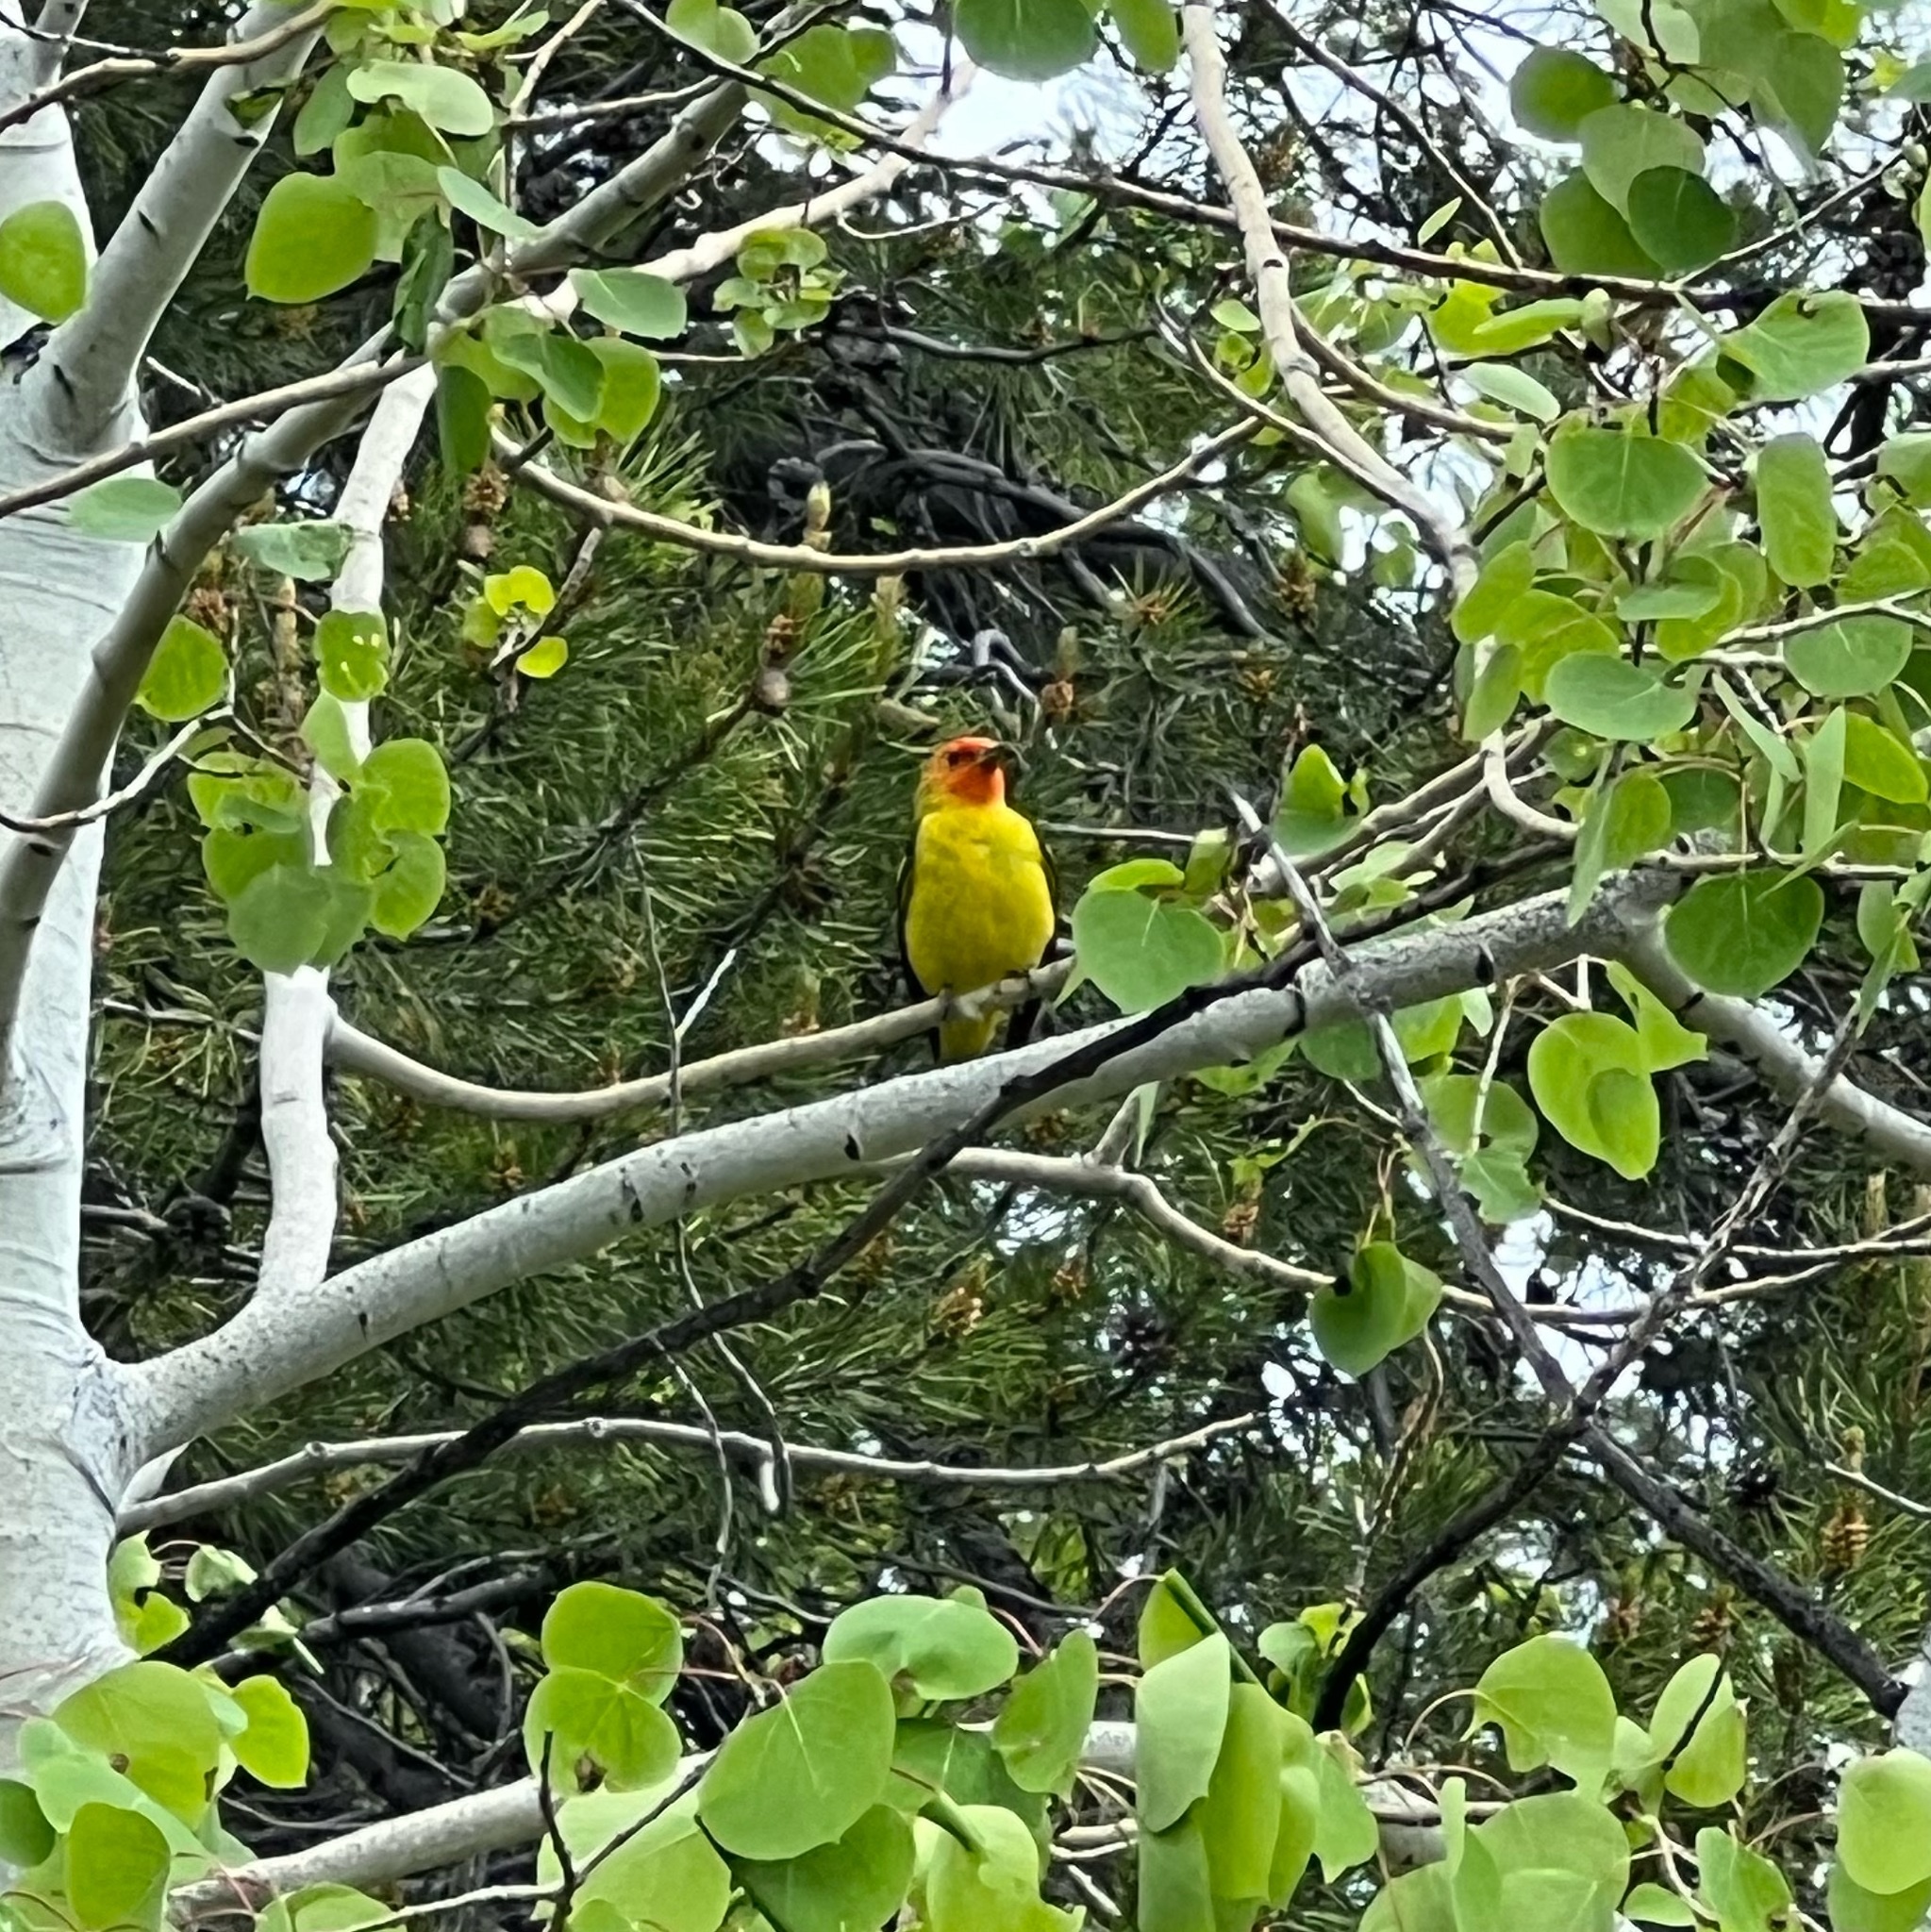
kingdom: Animalia
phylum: Chordata
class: Aves
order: Passeriformes
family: Cardinalidae
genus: Piranga
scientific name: Piranga ludoviciana
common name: Western tanager
